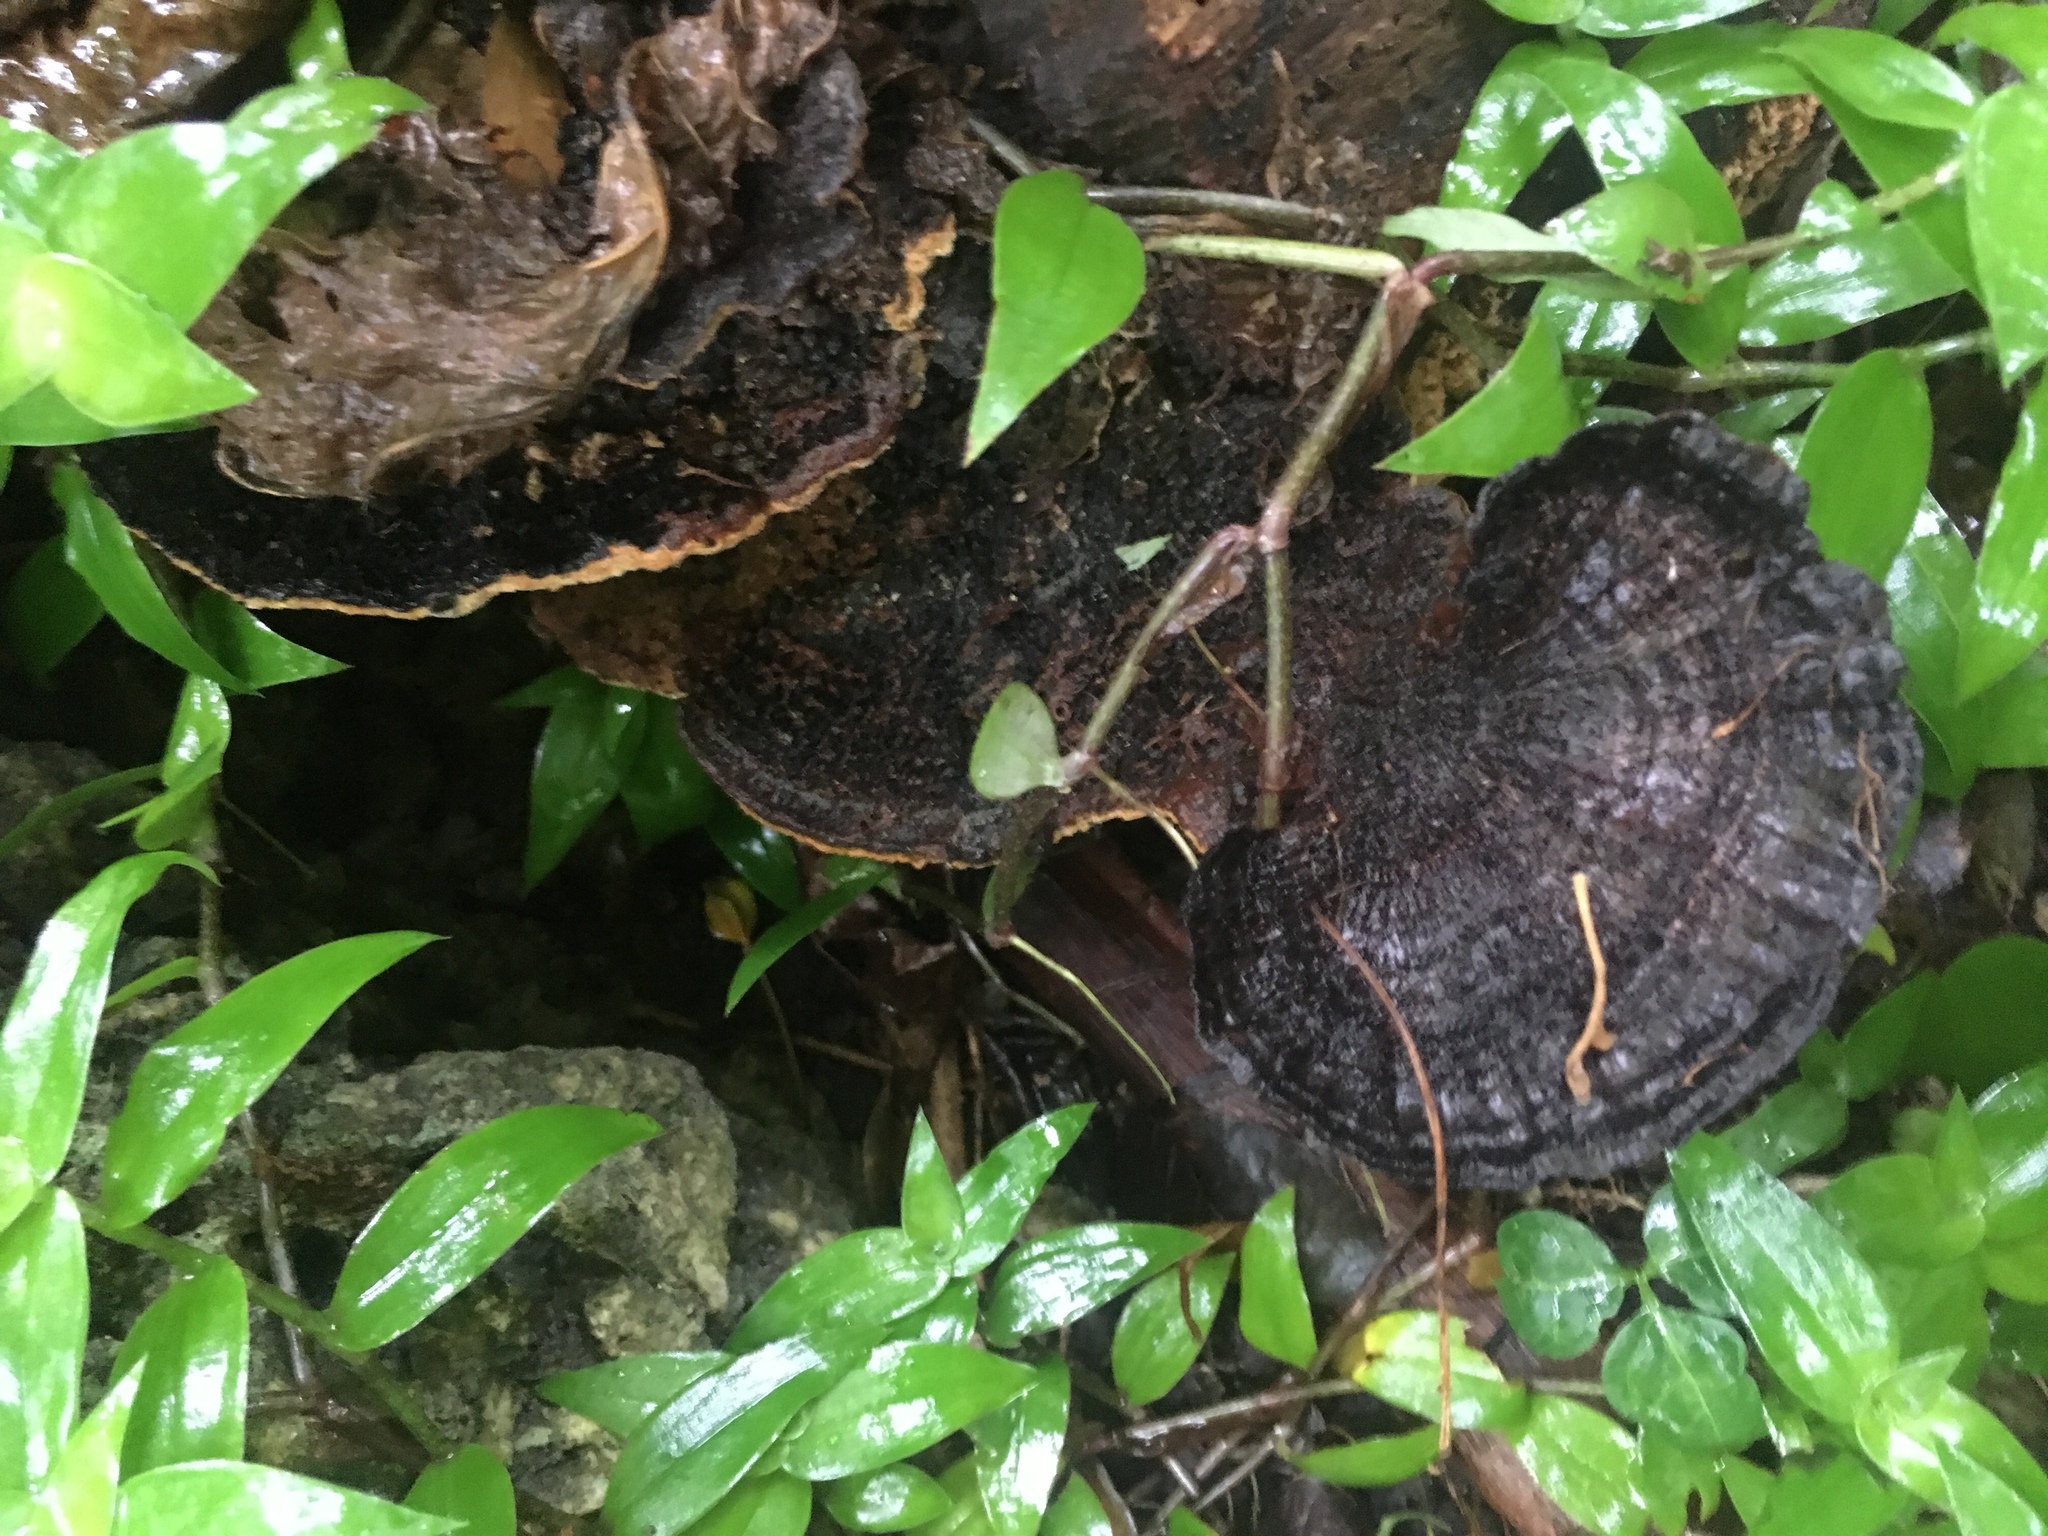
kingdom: Fungi
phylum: Basidiomycota
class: Agaricomycetes
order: Polyporales
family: Cerrenaceae
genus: Cerrena
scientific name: Cerrena hydnoides
